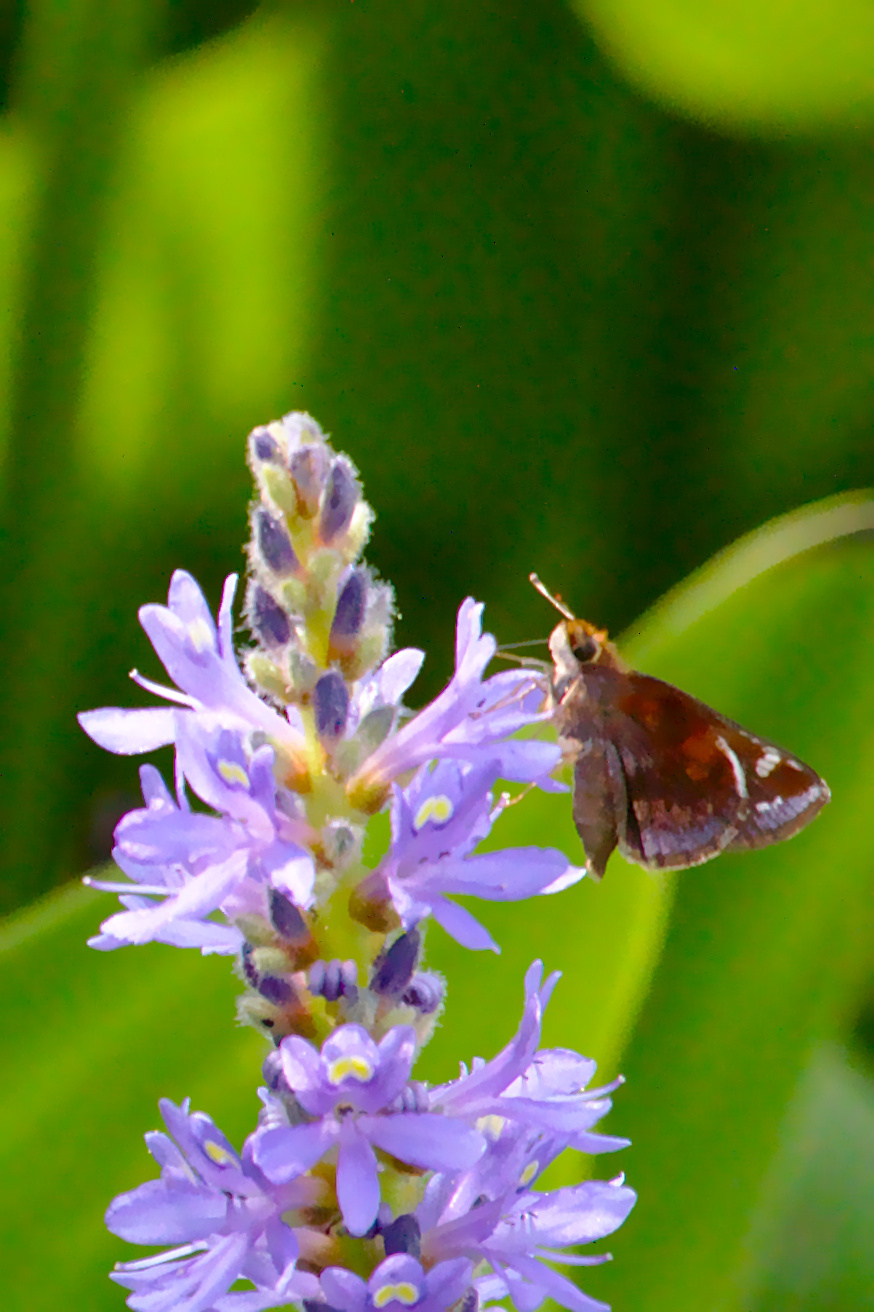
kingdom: Animalia
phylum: Arthropoda
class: Insecta
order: Lepidoptera
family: Hesperiidae
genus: Lon
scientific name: Lon zabulon
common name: Zabulon skipper
